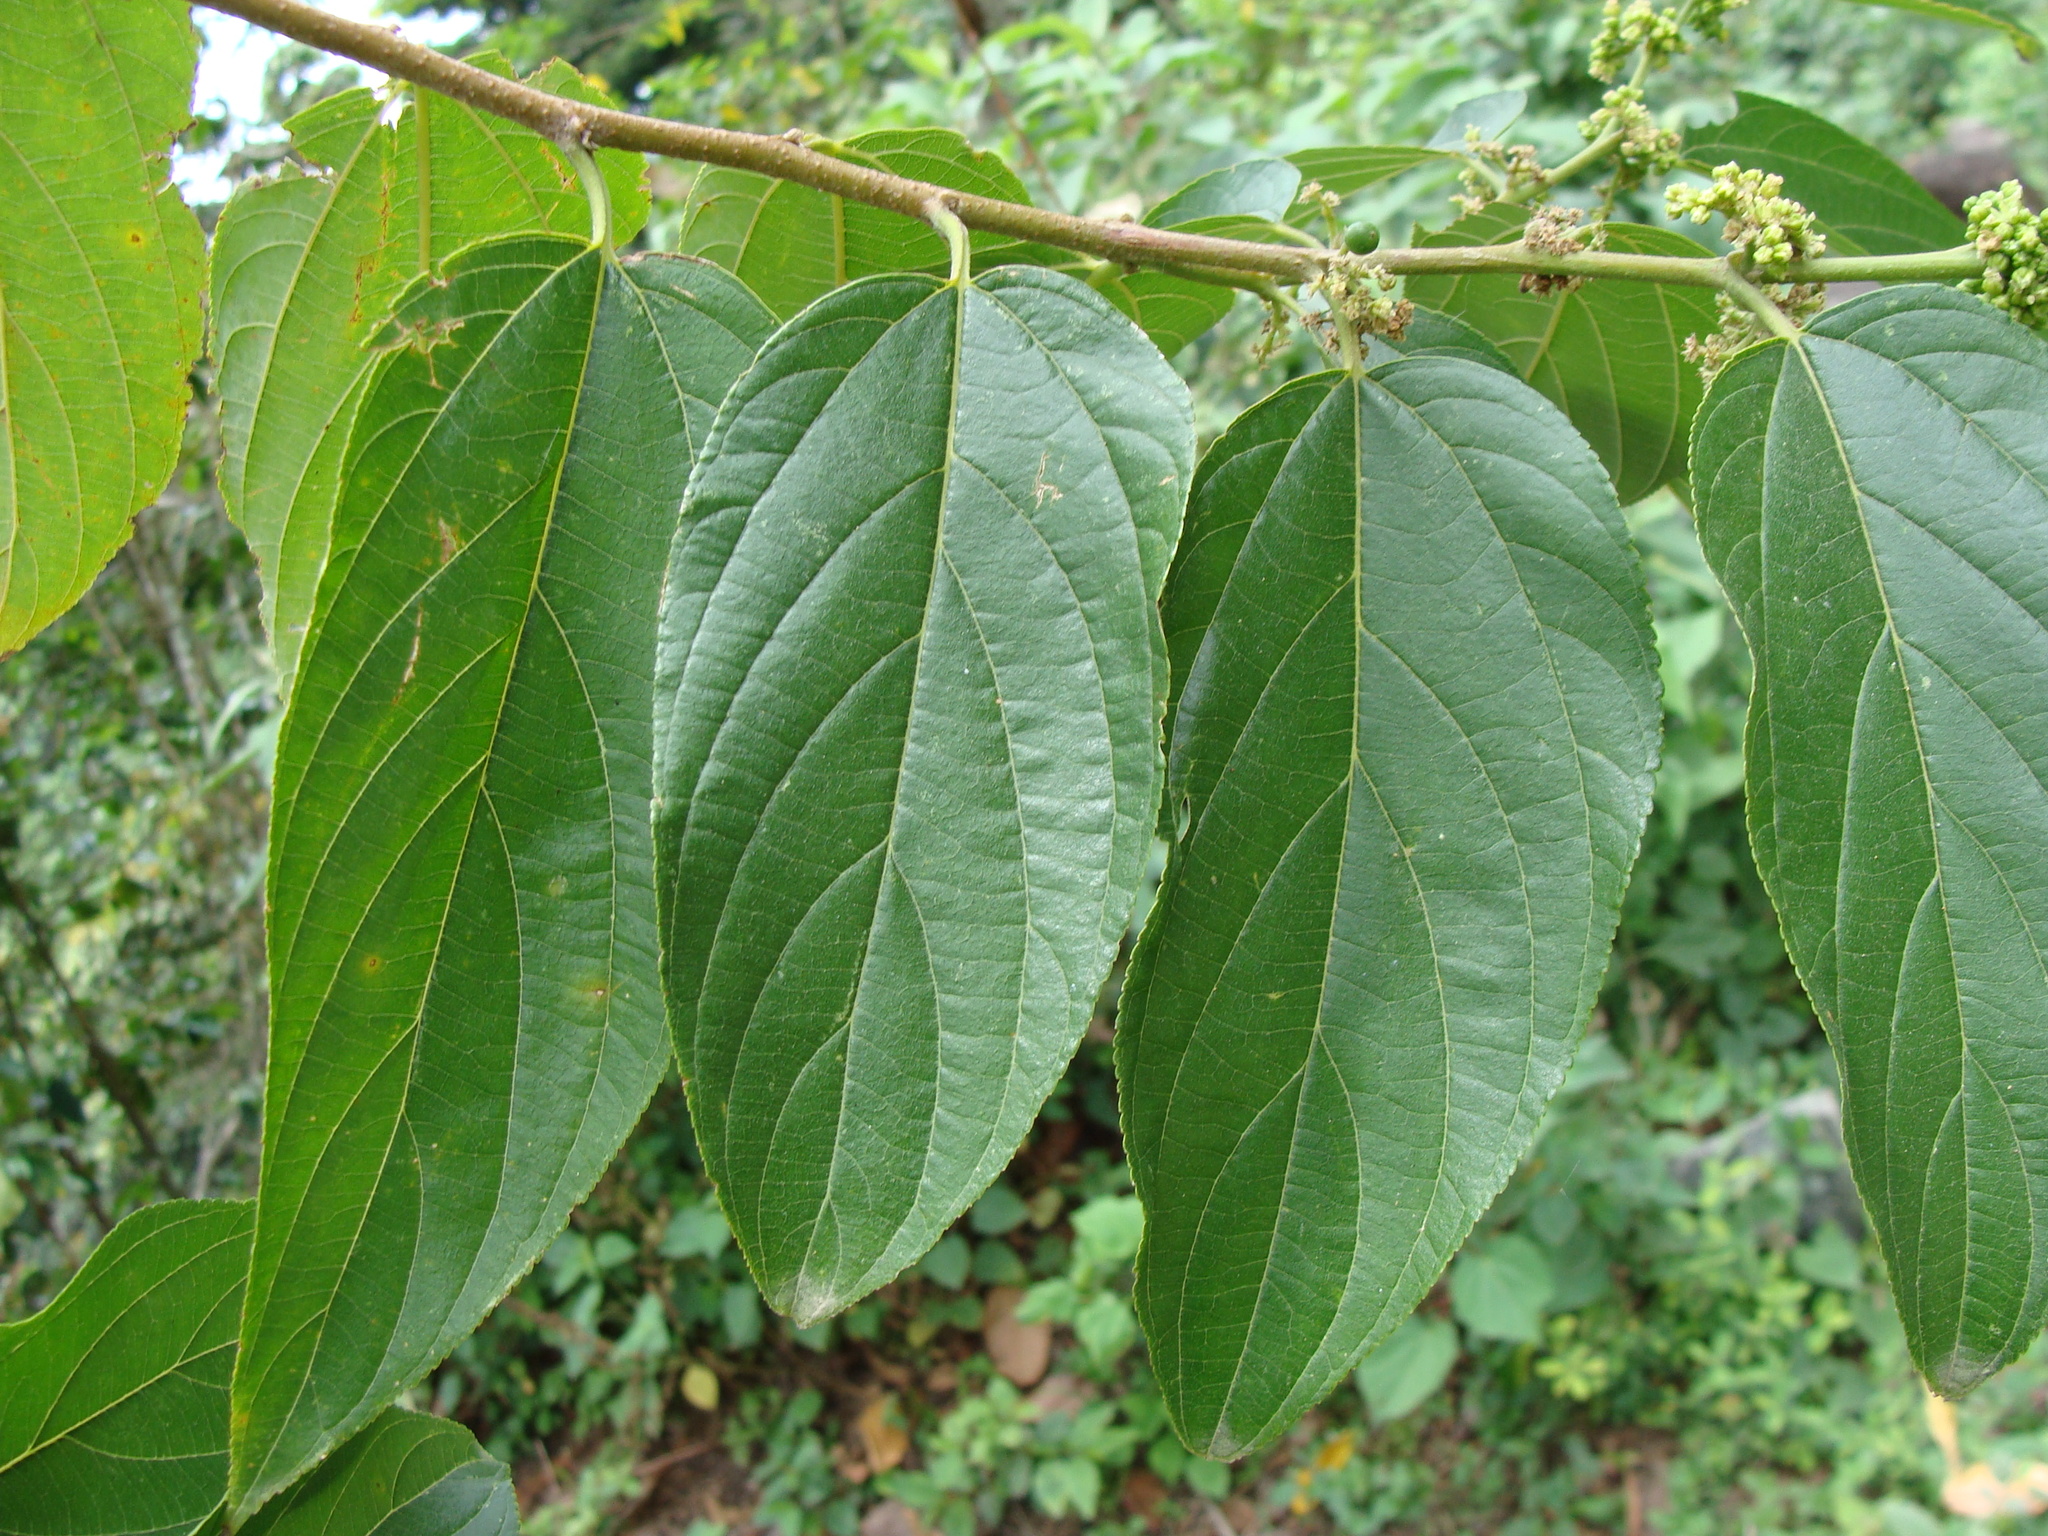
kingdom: Plantae
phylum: Tracheophyta
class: Magnoliopsida
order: Rosales
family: Cannabaceae
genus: Trema
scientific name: Trema micranthum
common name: Jamaican nettletree
